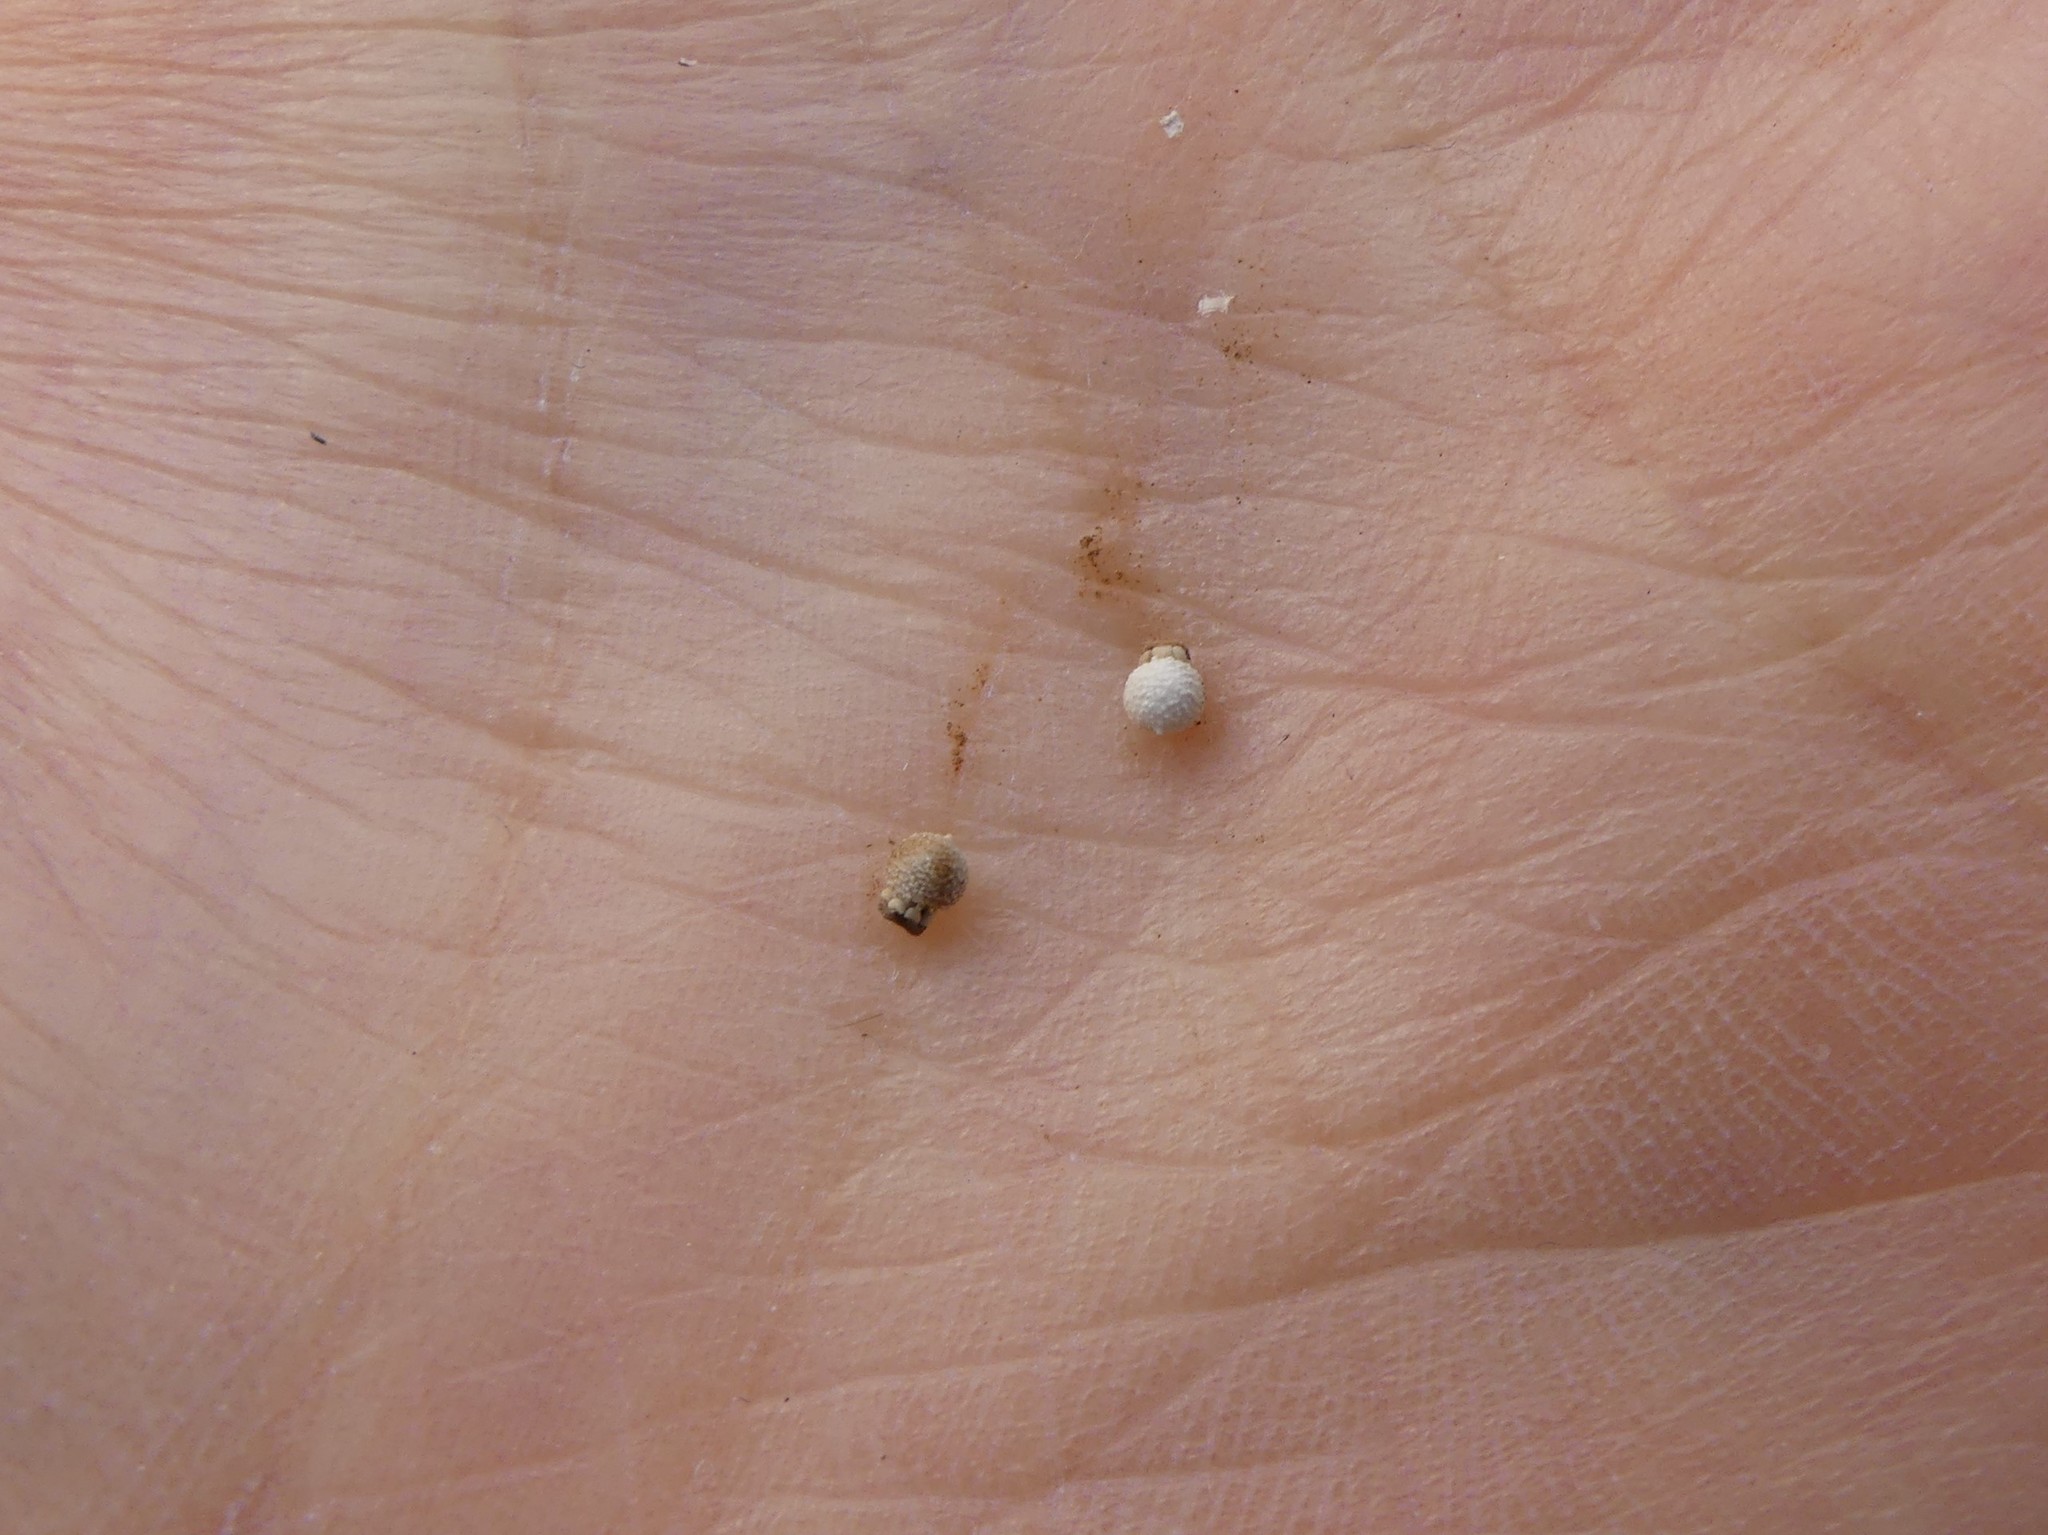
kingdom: Plantae
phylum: Tracheophyta
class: Liliopsida
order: Poales
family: Cyperaceae
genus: Scleria
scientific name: Scleria pauciflora
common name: Few-flowered nutrush
